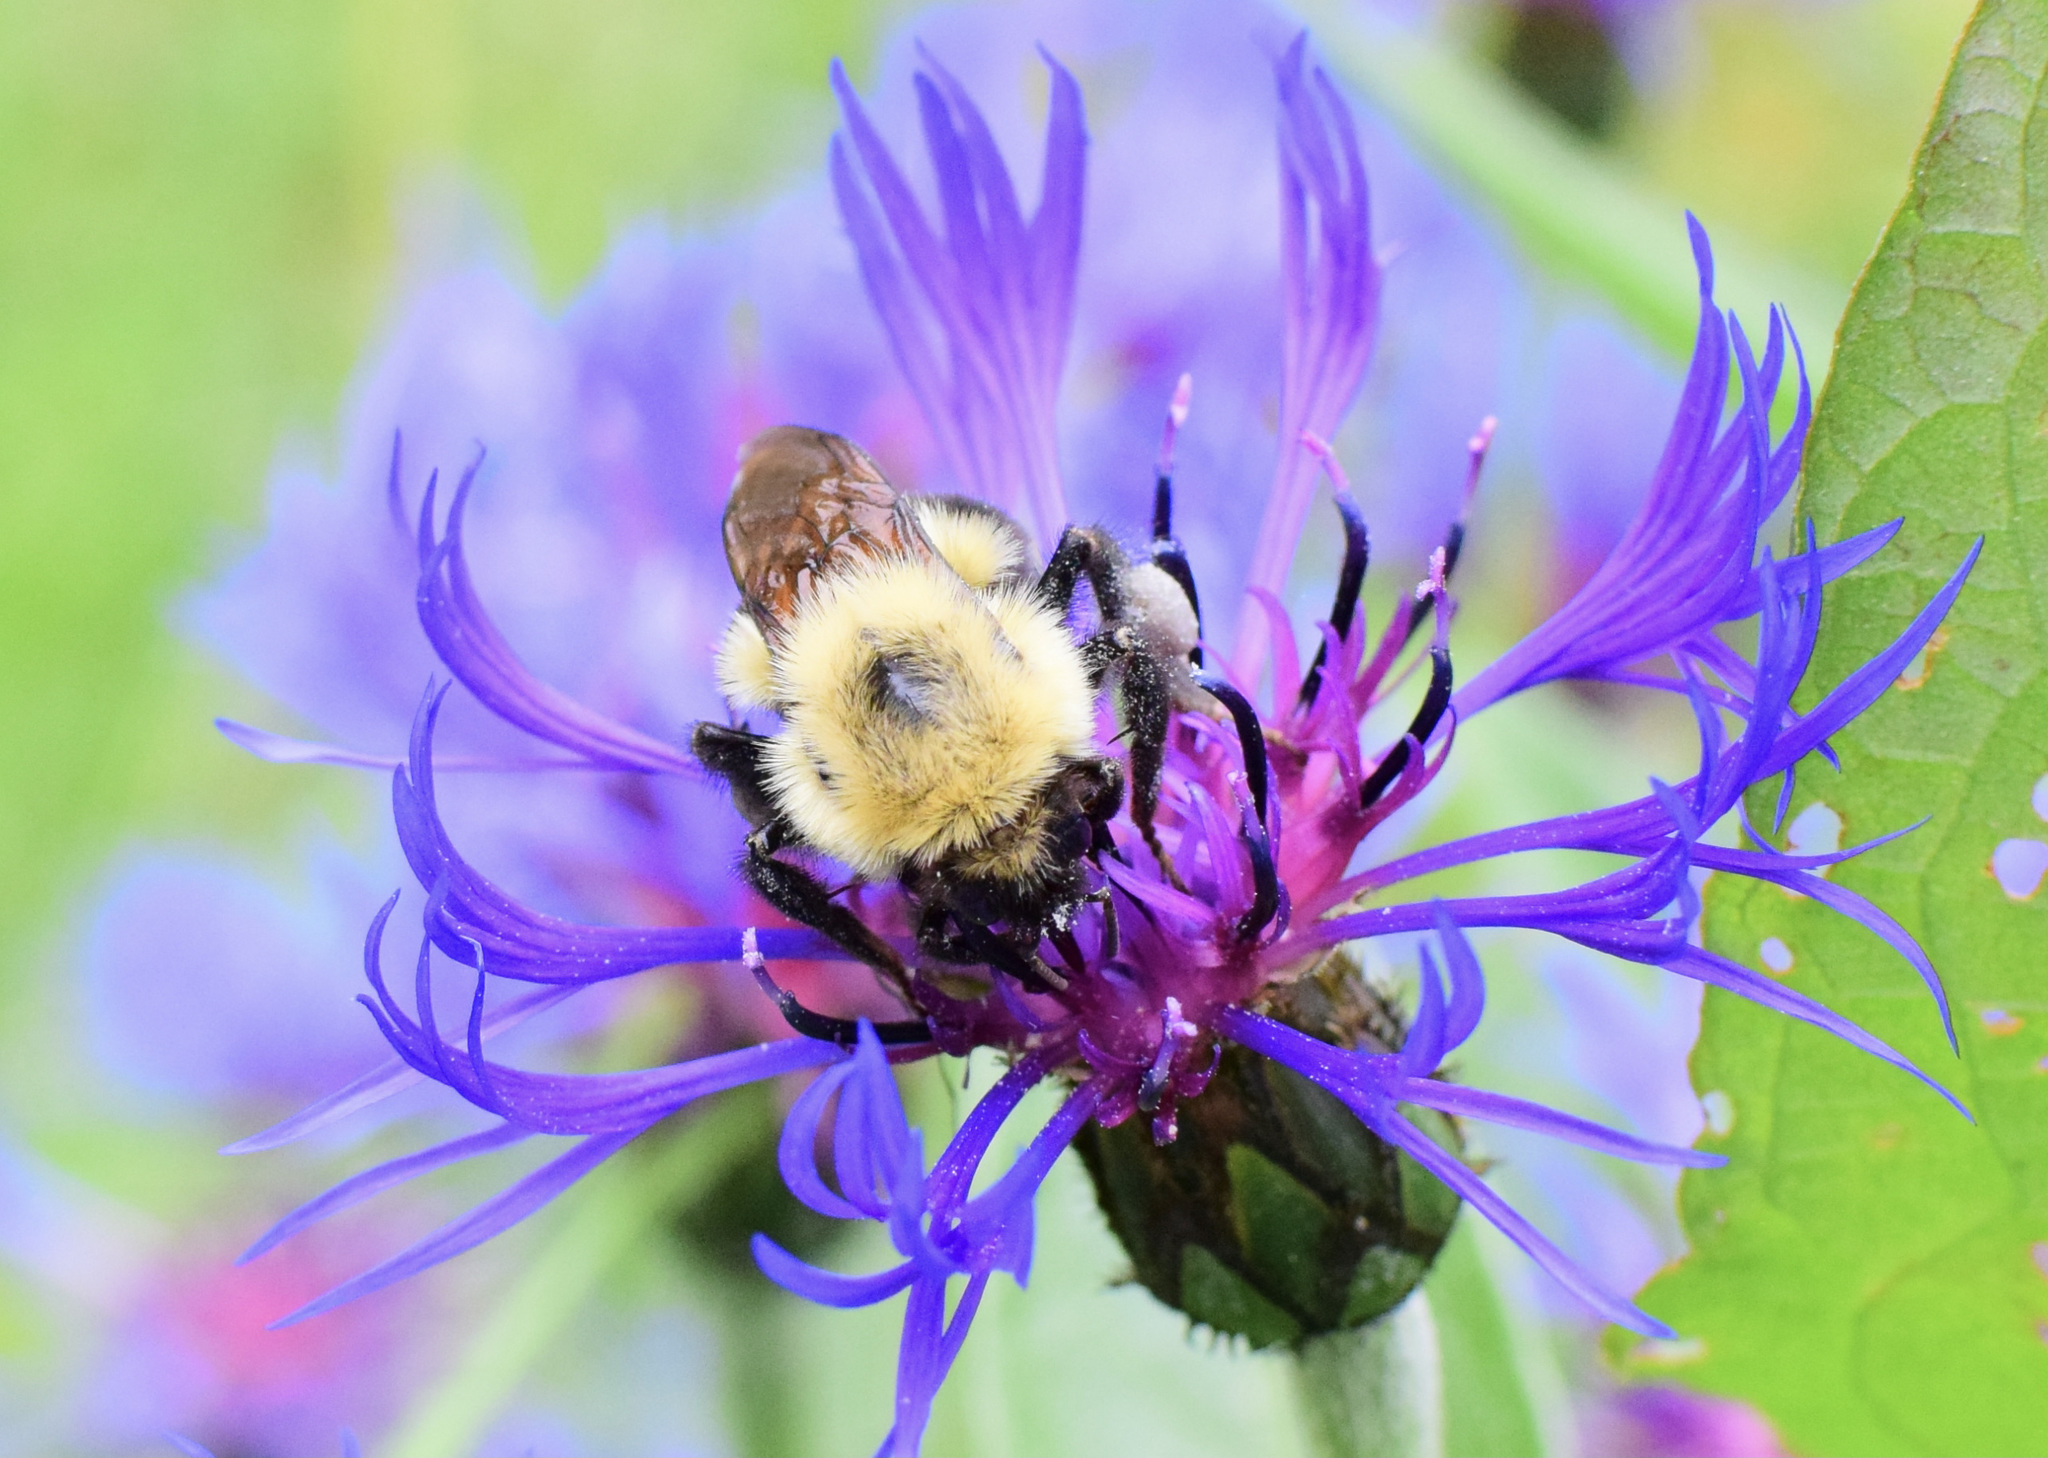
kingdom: Animalia
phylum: Arthropoda
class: Insecta
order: Hymenoptera
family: Apidae
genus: Bombus
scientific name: Bombus bimaculatus
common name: Two-spotted bumble bee
